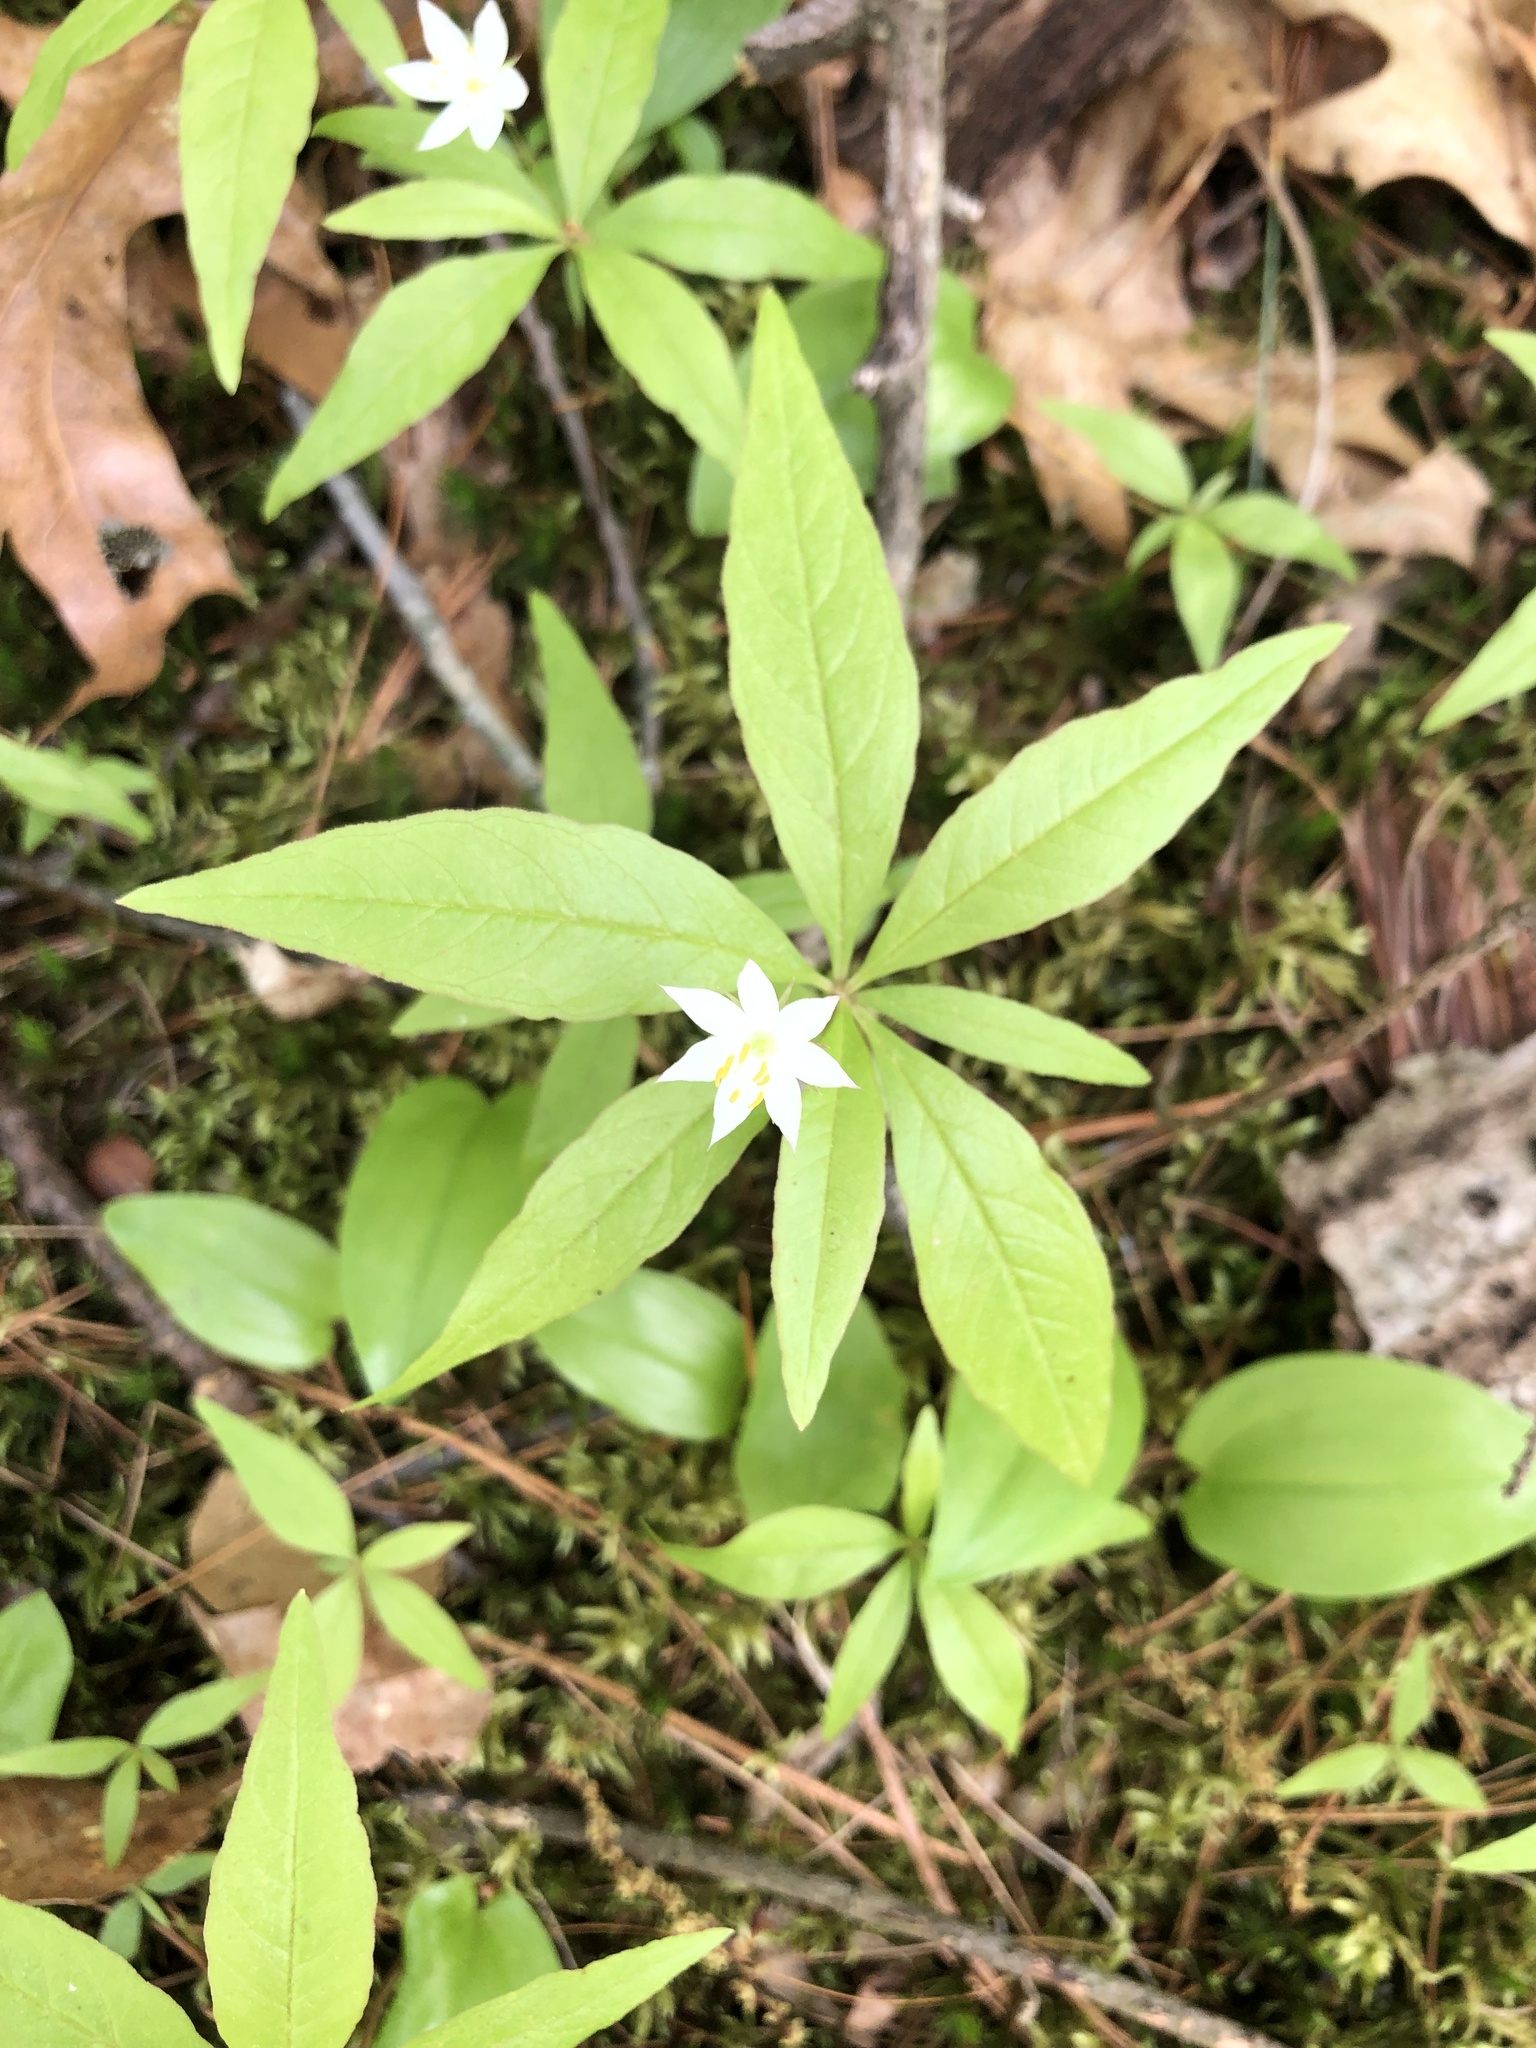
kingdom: Plantae
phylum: Tracheophyta
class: Magnoliopsida
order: Ericales
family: Primulaceae
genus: Lysimachia
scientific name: Lysimachia borealis
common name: American starflower
